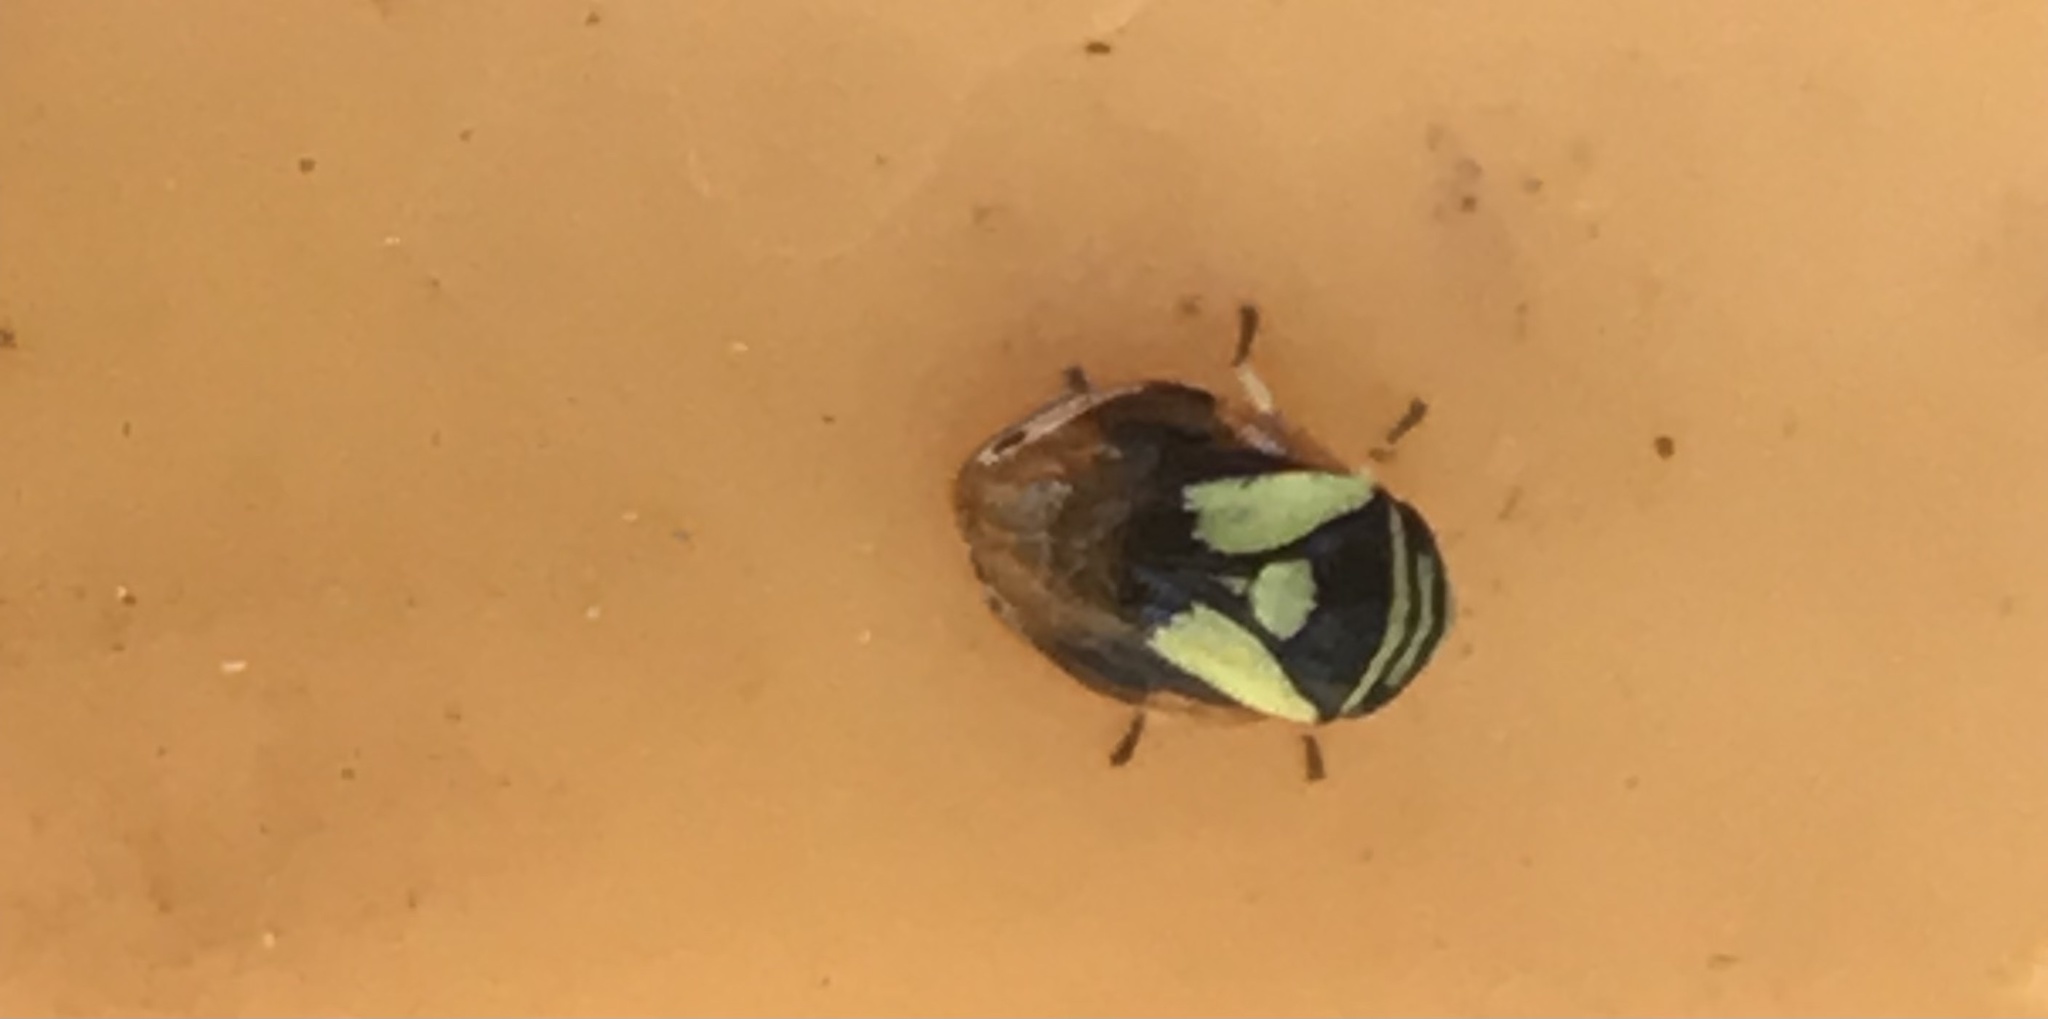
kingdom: Animalia
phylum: Arthropoda
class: Insecta
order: Hemiptera
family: Clastopteridae
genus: Clastoptera
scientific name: Clastoptera proteus
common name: Dogwood spittlebug
